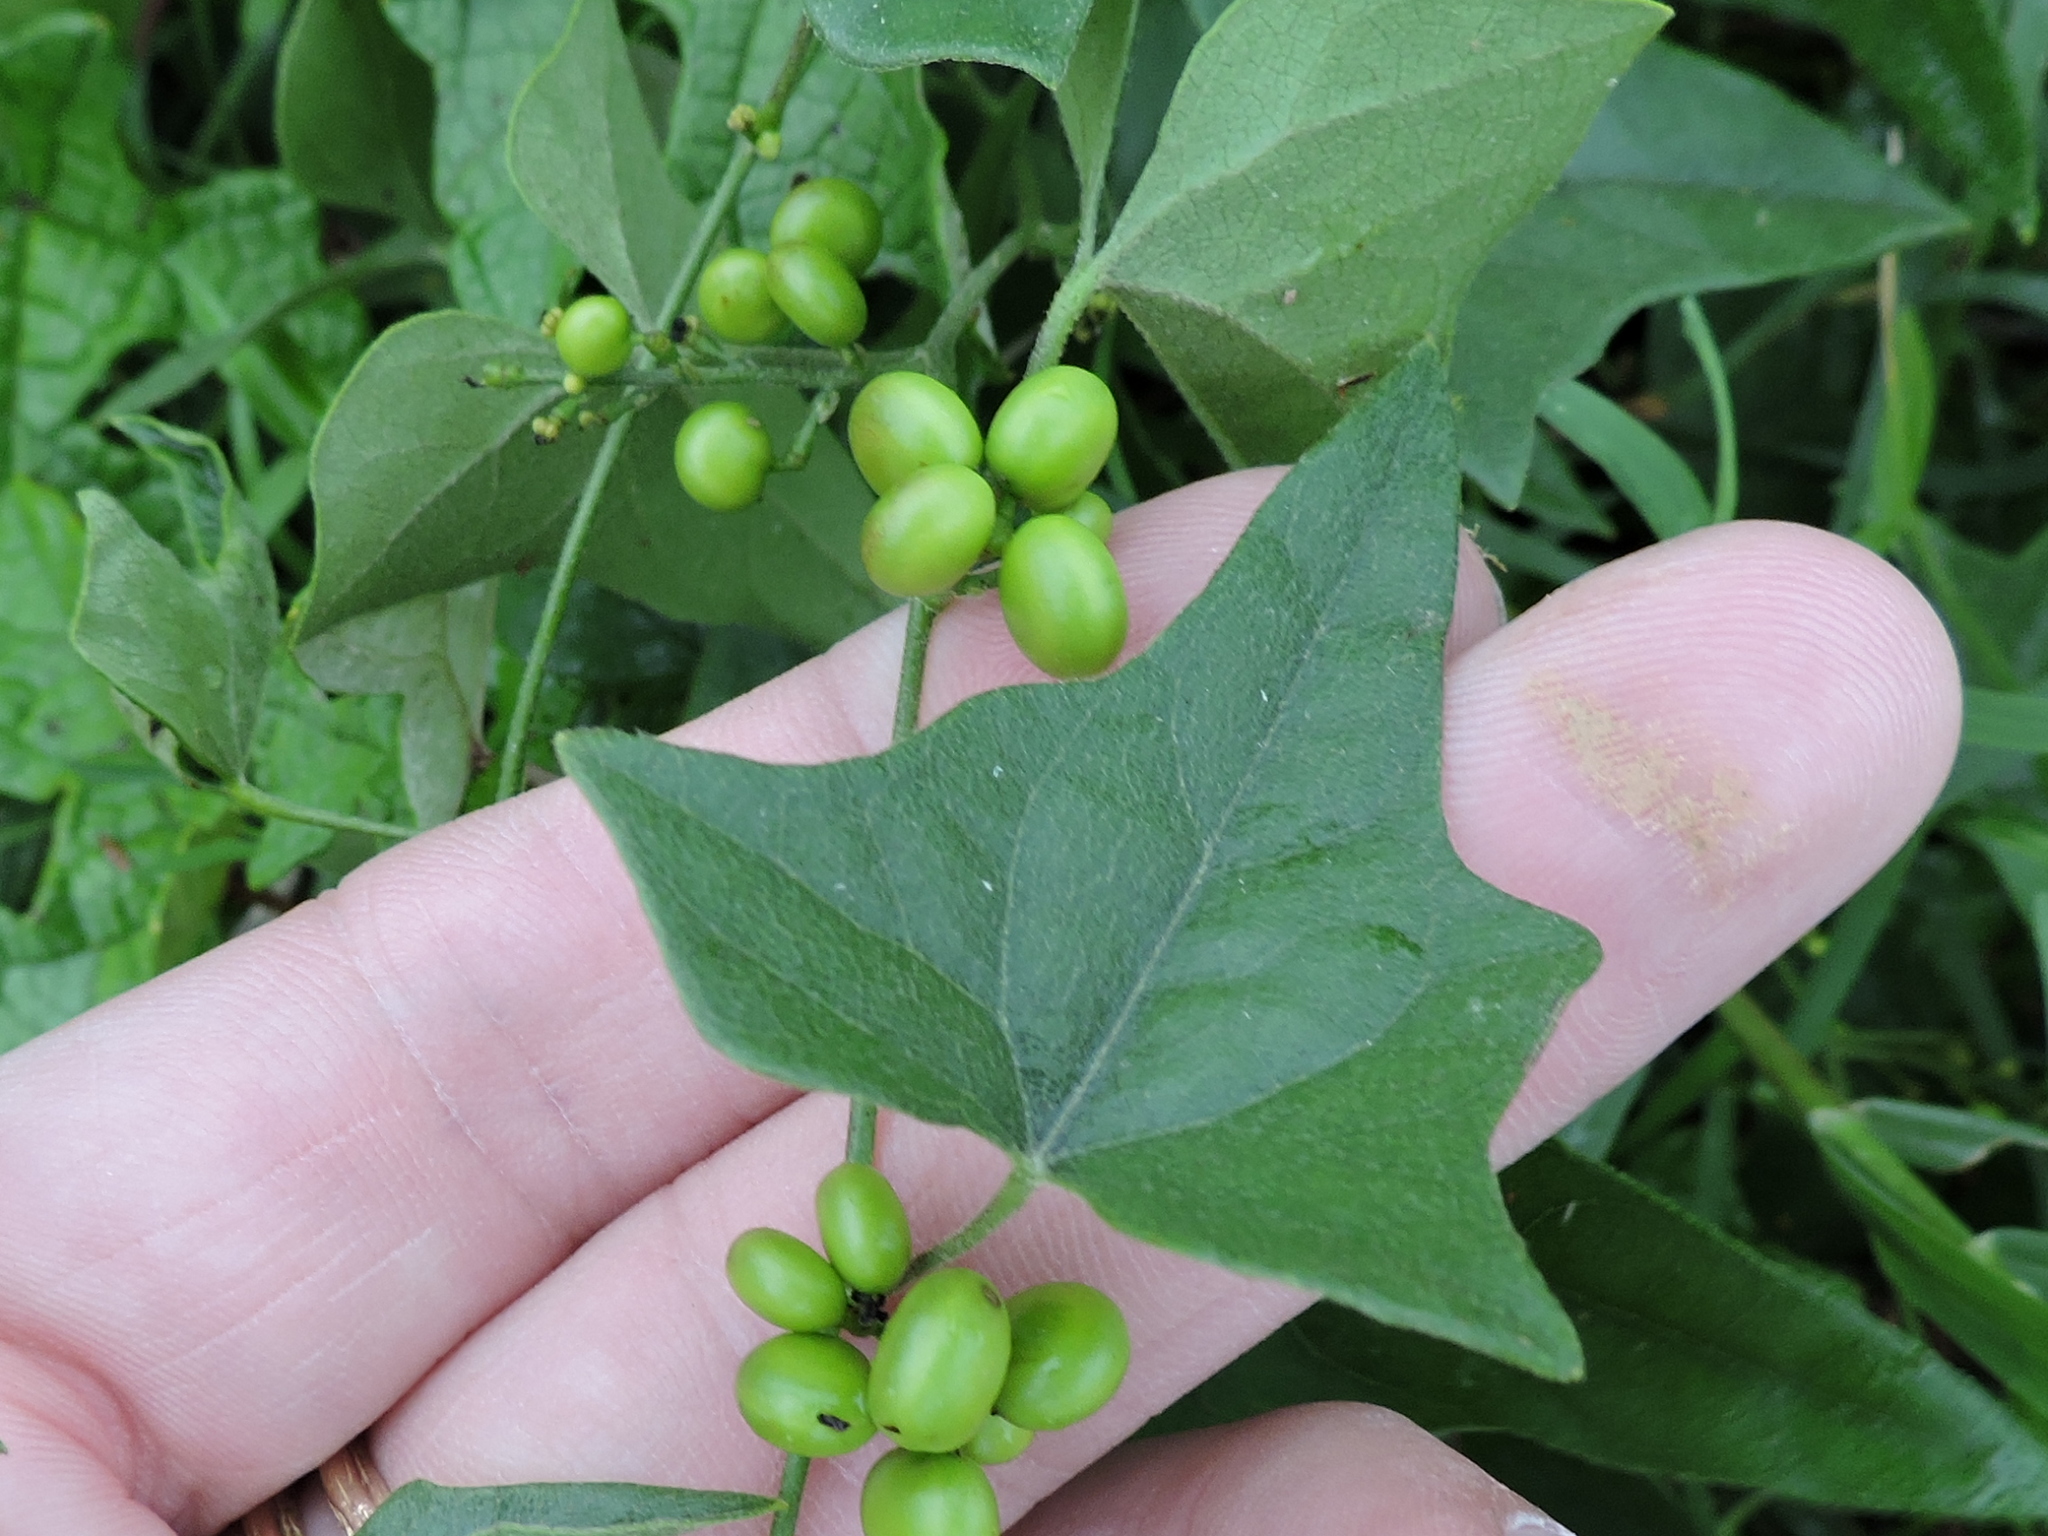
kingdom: Plantae
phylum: Tracheophyta
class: Magnoliopsida
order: Ranunculales
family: Menispermaceae
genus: Cocculus
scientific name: Cocculus carolinus
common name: Carolina moonseed
